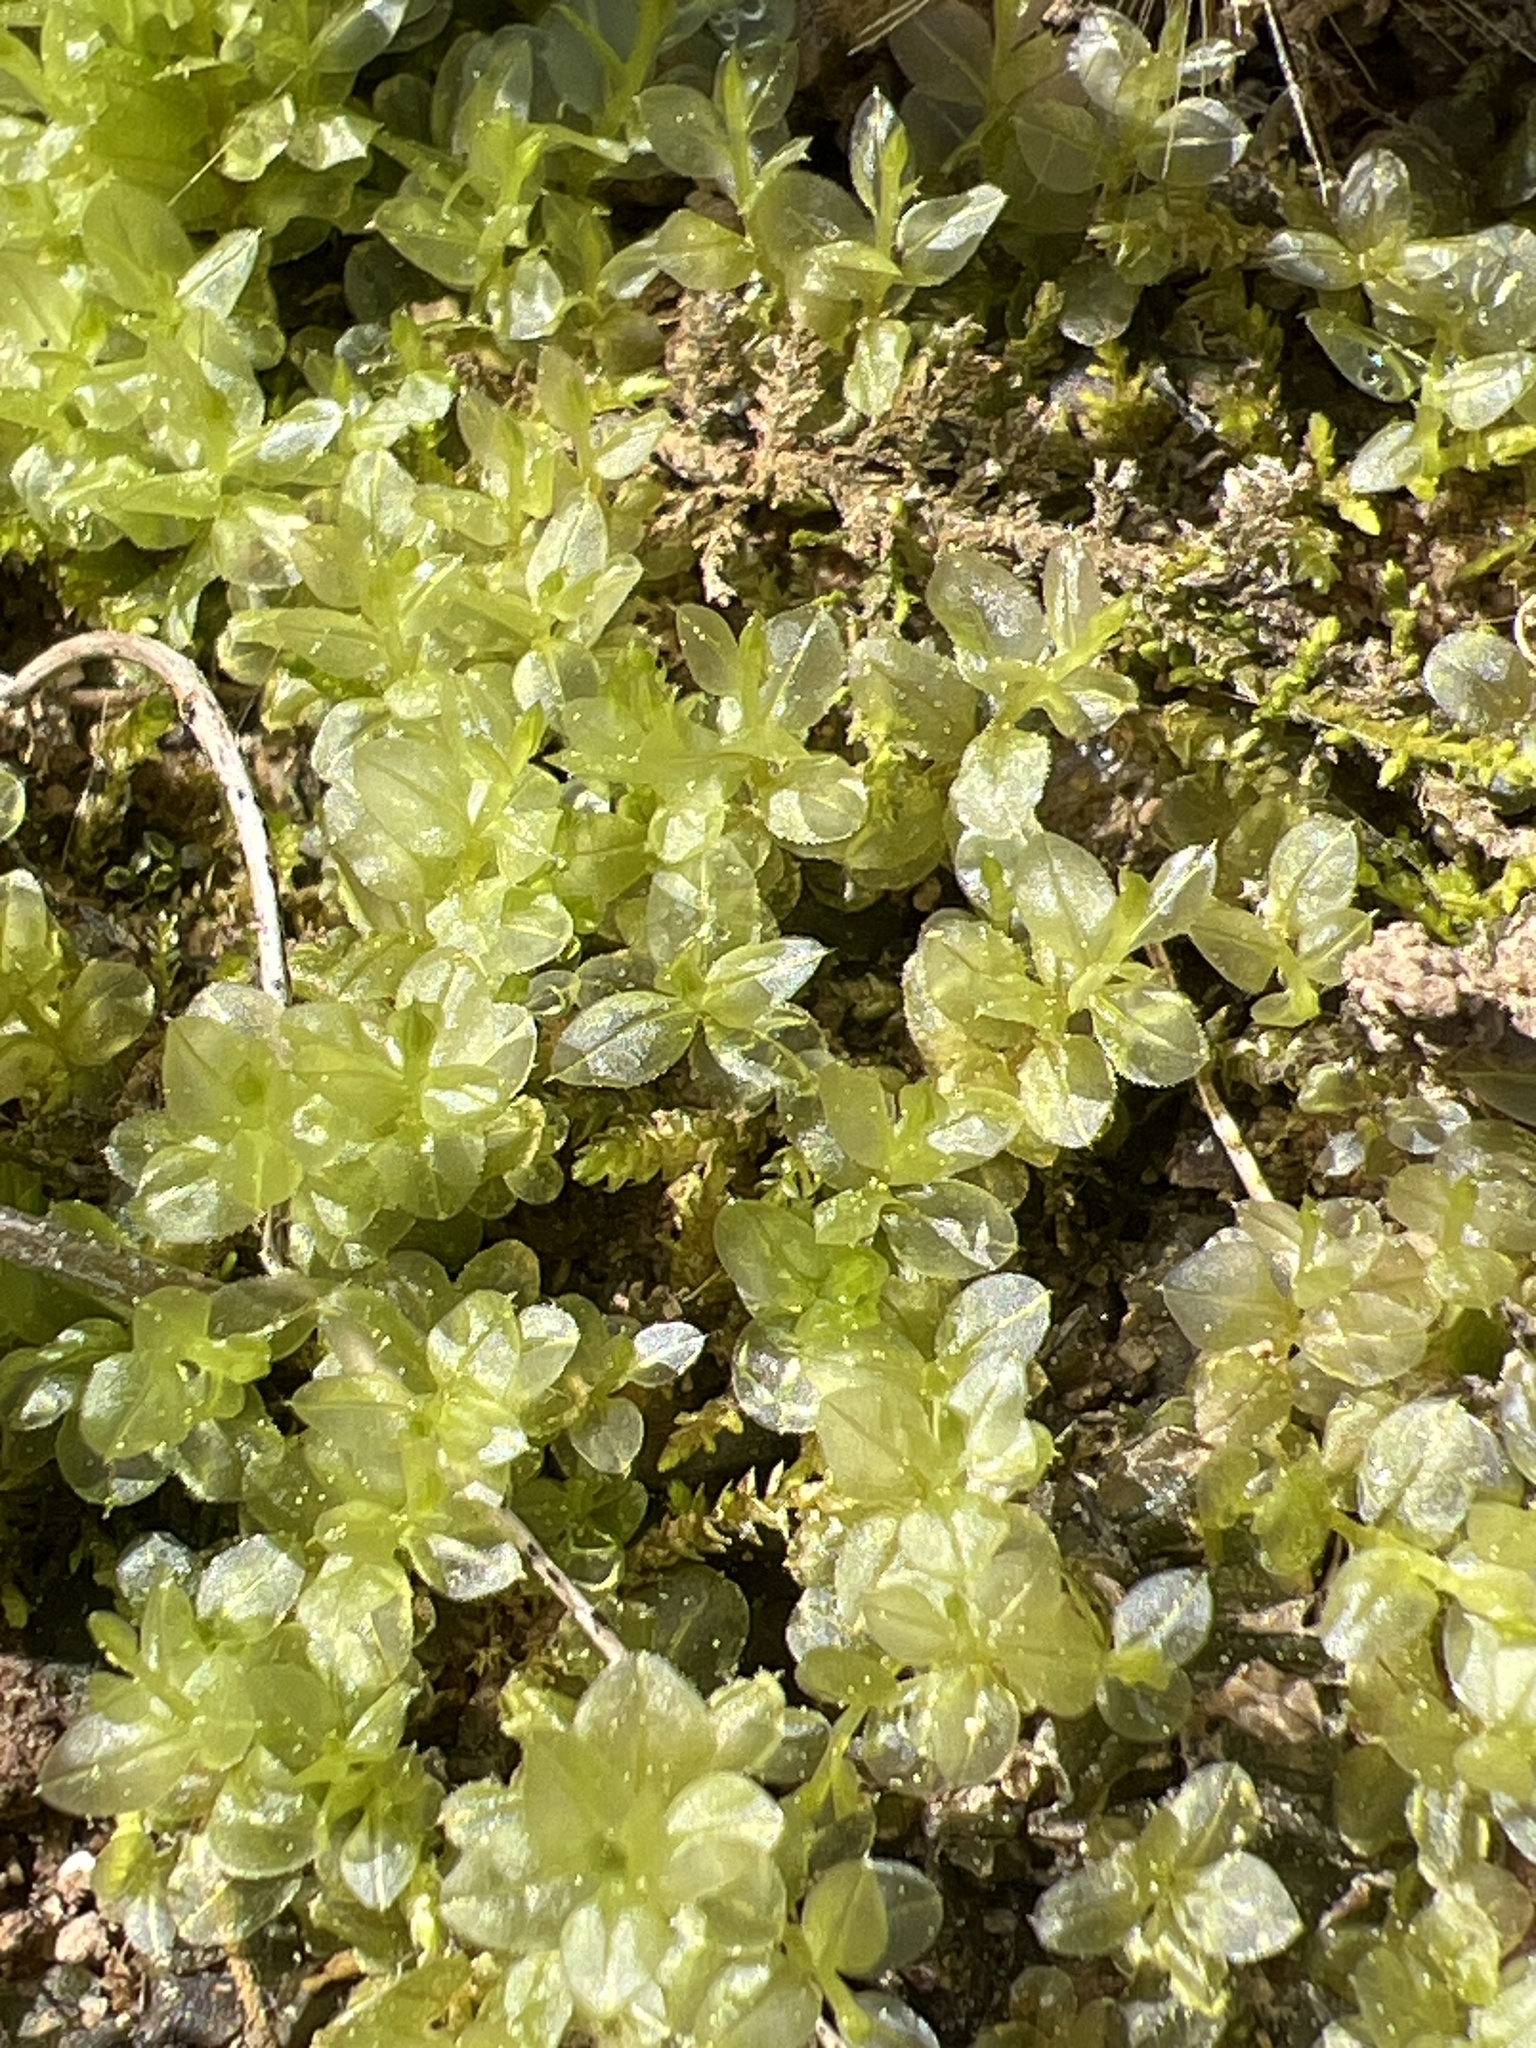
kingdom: Plantae
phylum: Bryophyta
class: Bryopsida
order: Bryales
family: Mniaceae
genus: Plagiomnium
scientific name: Plagiomnium ciliare
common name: Toothed leafy moss
